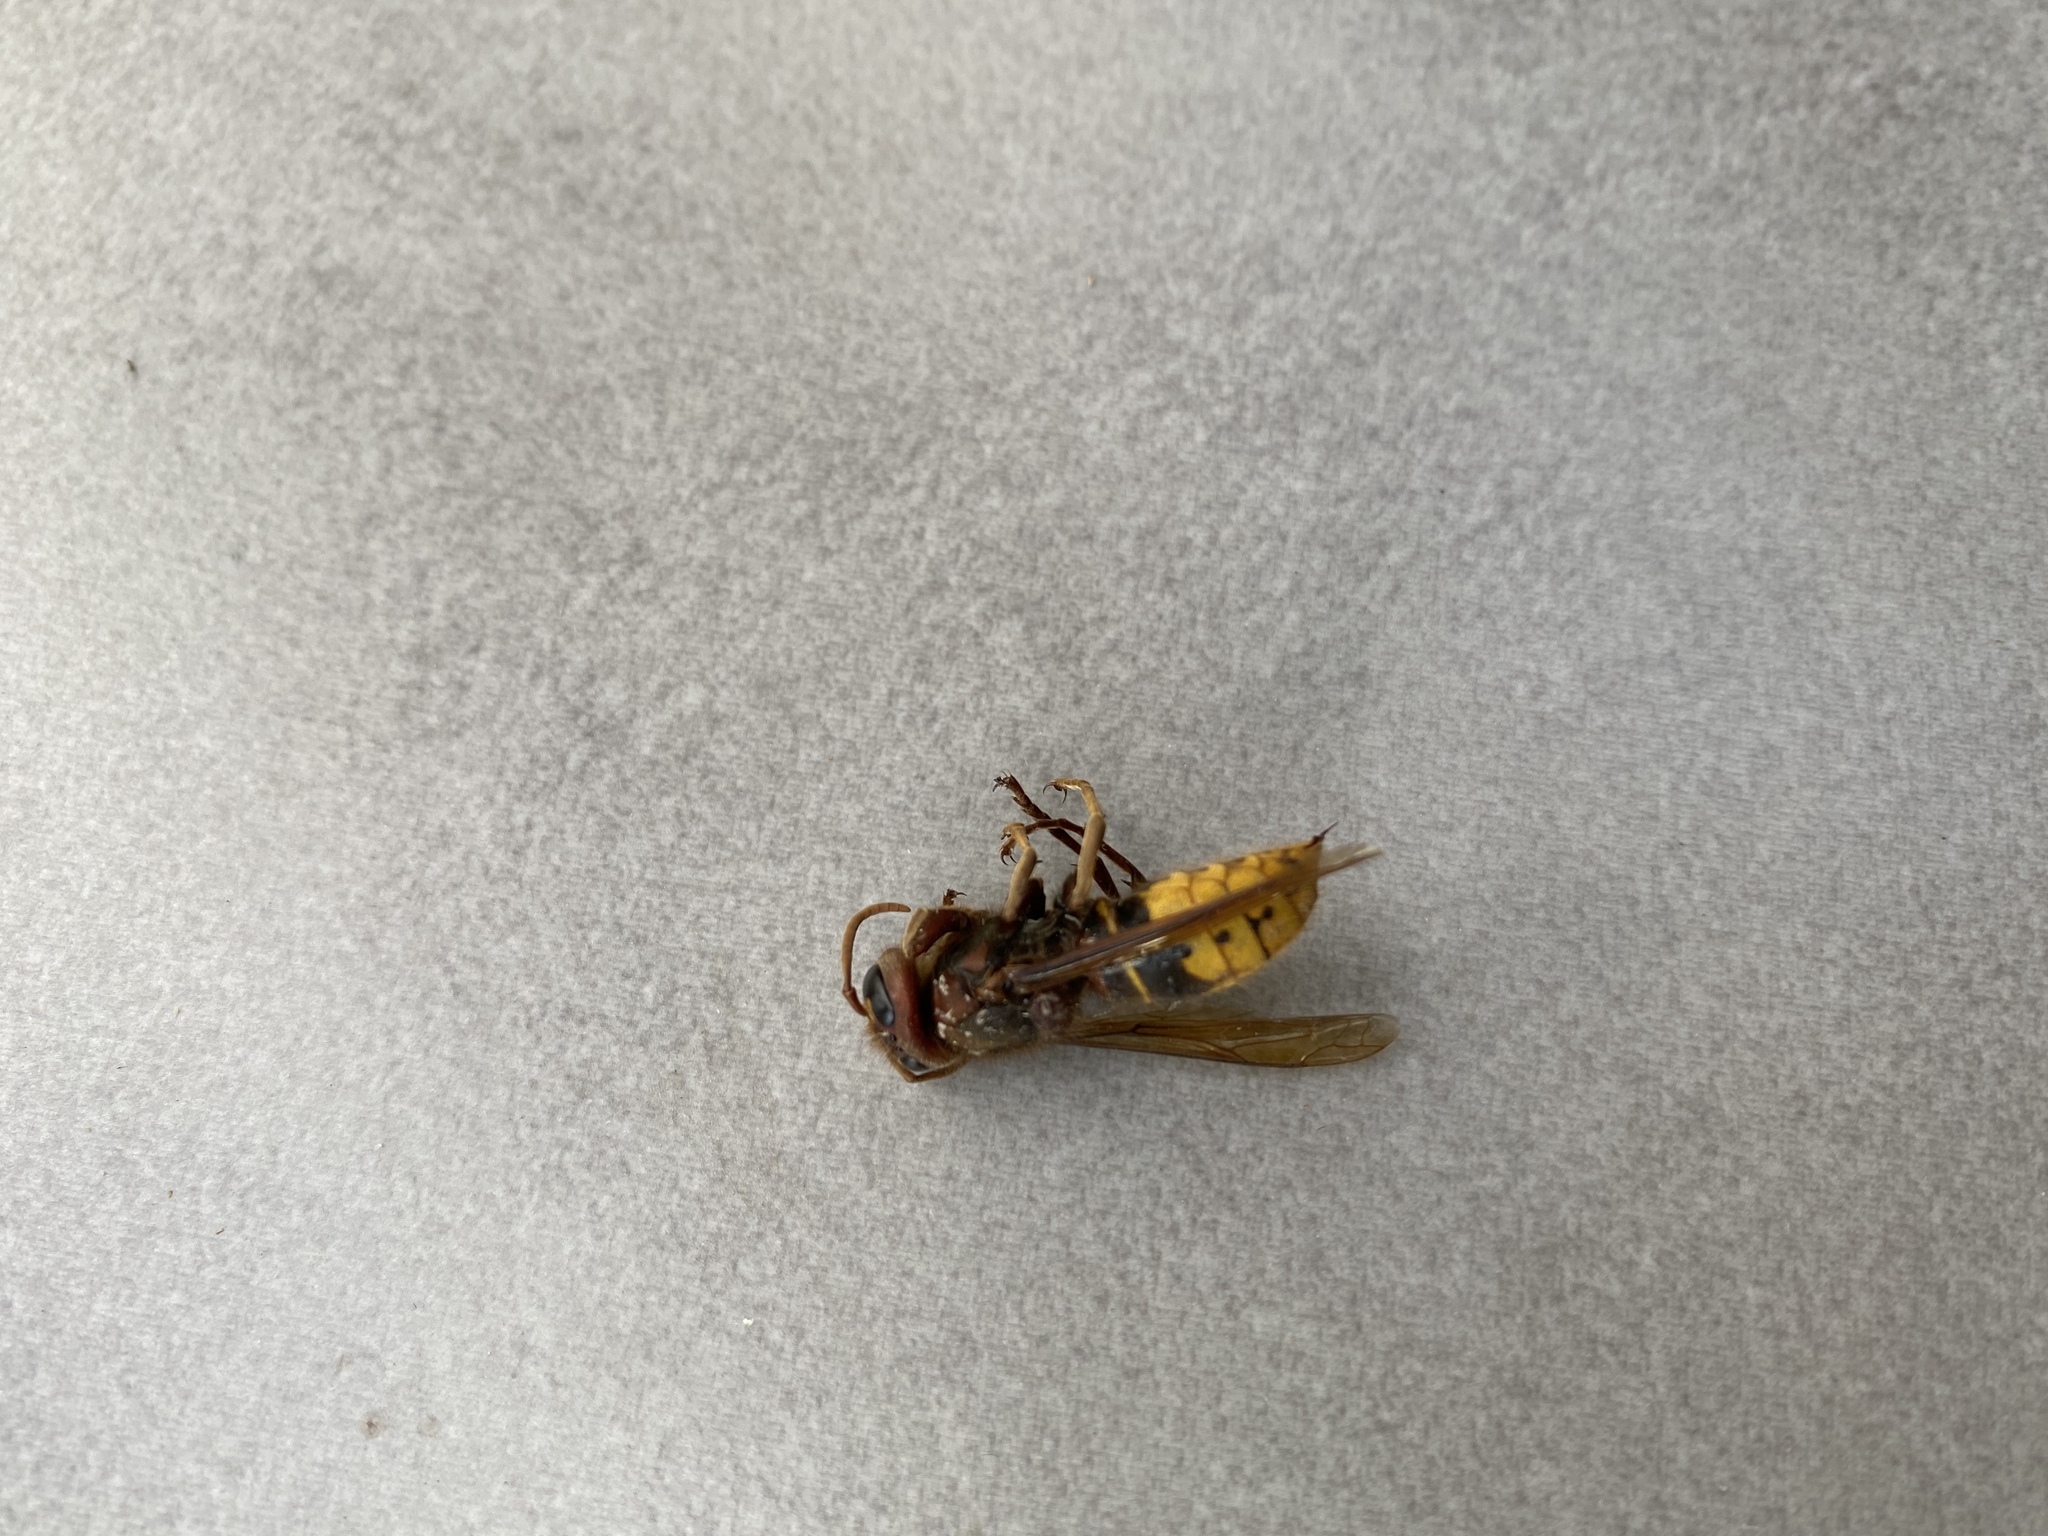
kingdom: Animalia
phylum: Arthropoda
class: Insecta
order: Hymenoptera
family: Vespidae
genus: Vespa
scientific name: Vespa crabro
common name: Hornet
